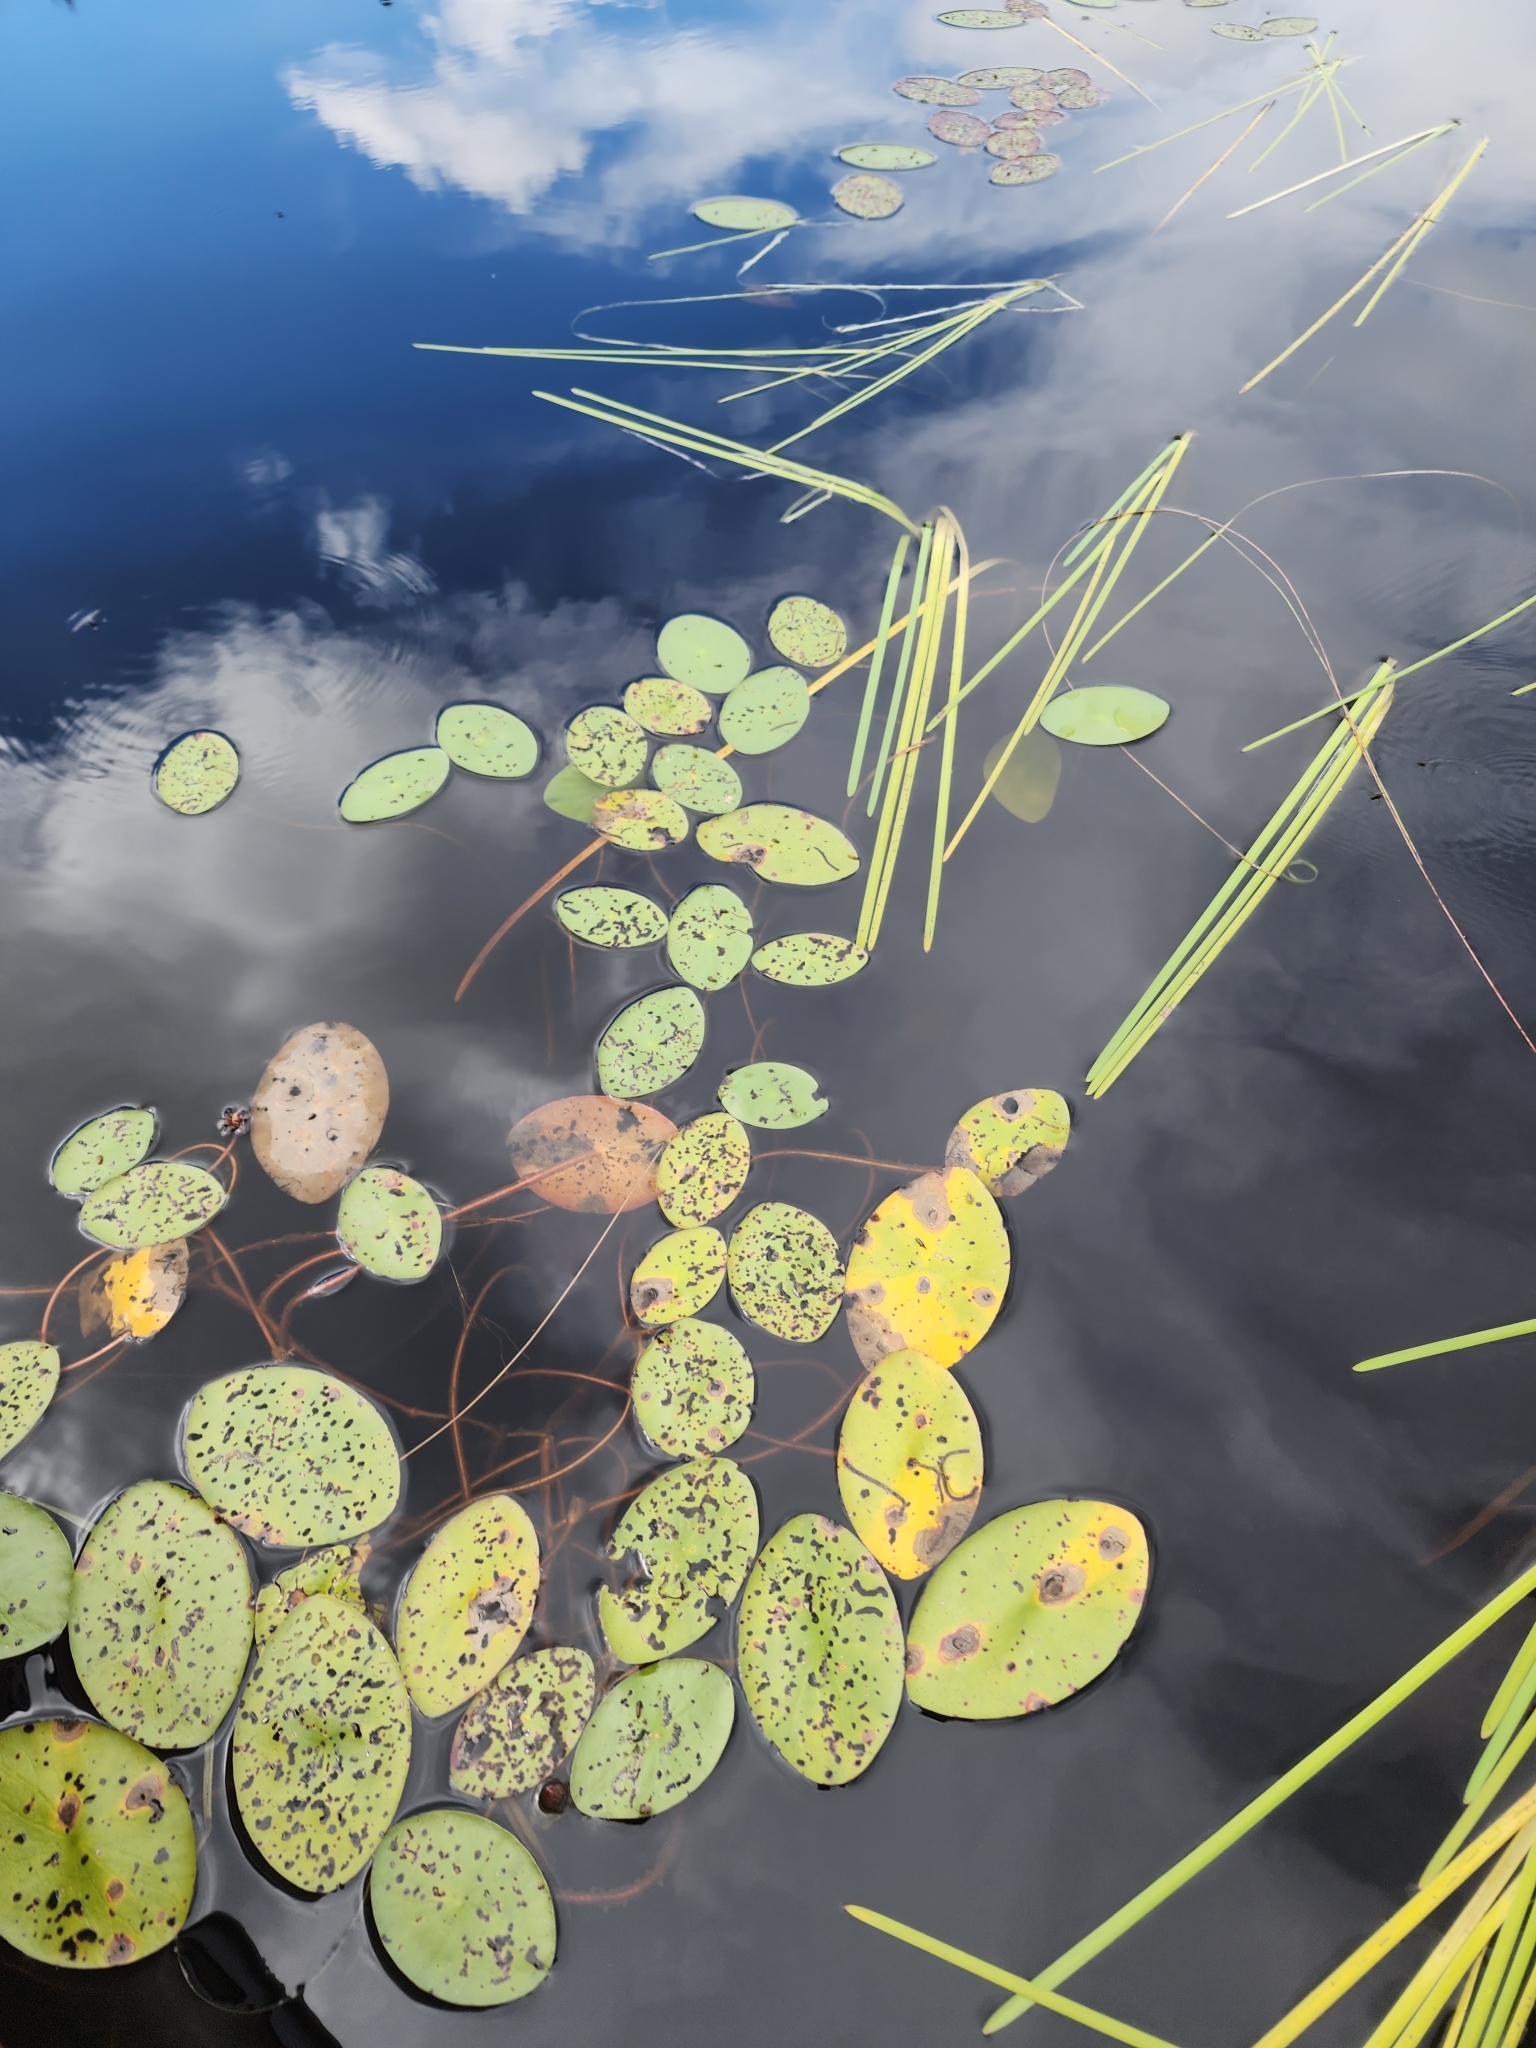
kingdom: Plantae
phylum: Tracheophyta
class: Magnoliopsida
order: Nymphaeales
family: Cabombaceae
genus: Brasenia
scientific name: Brasenia schreberi
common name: Water-shield
